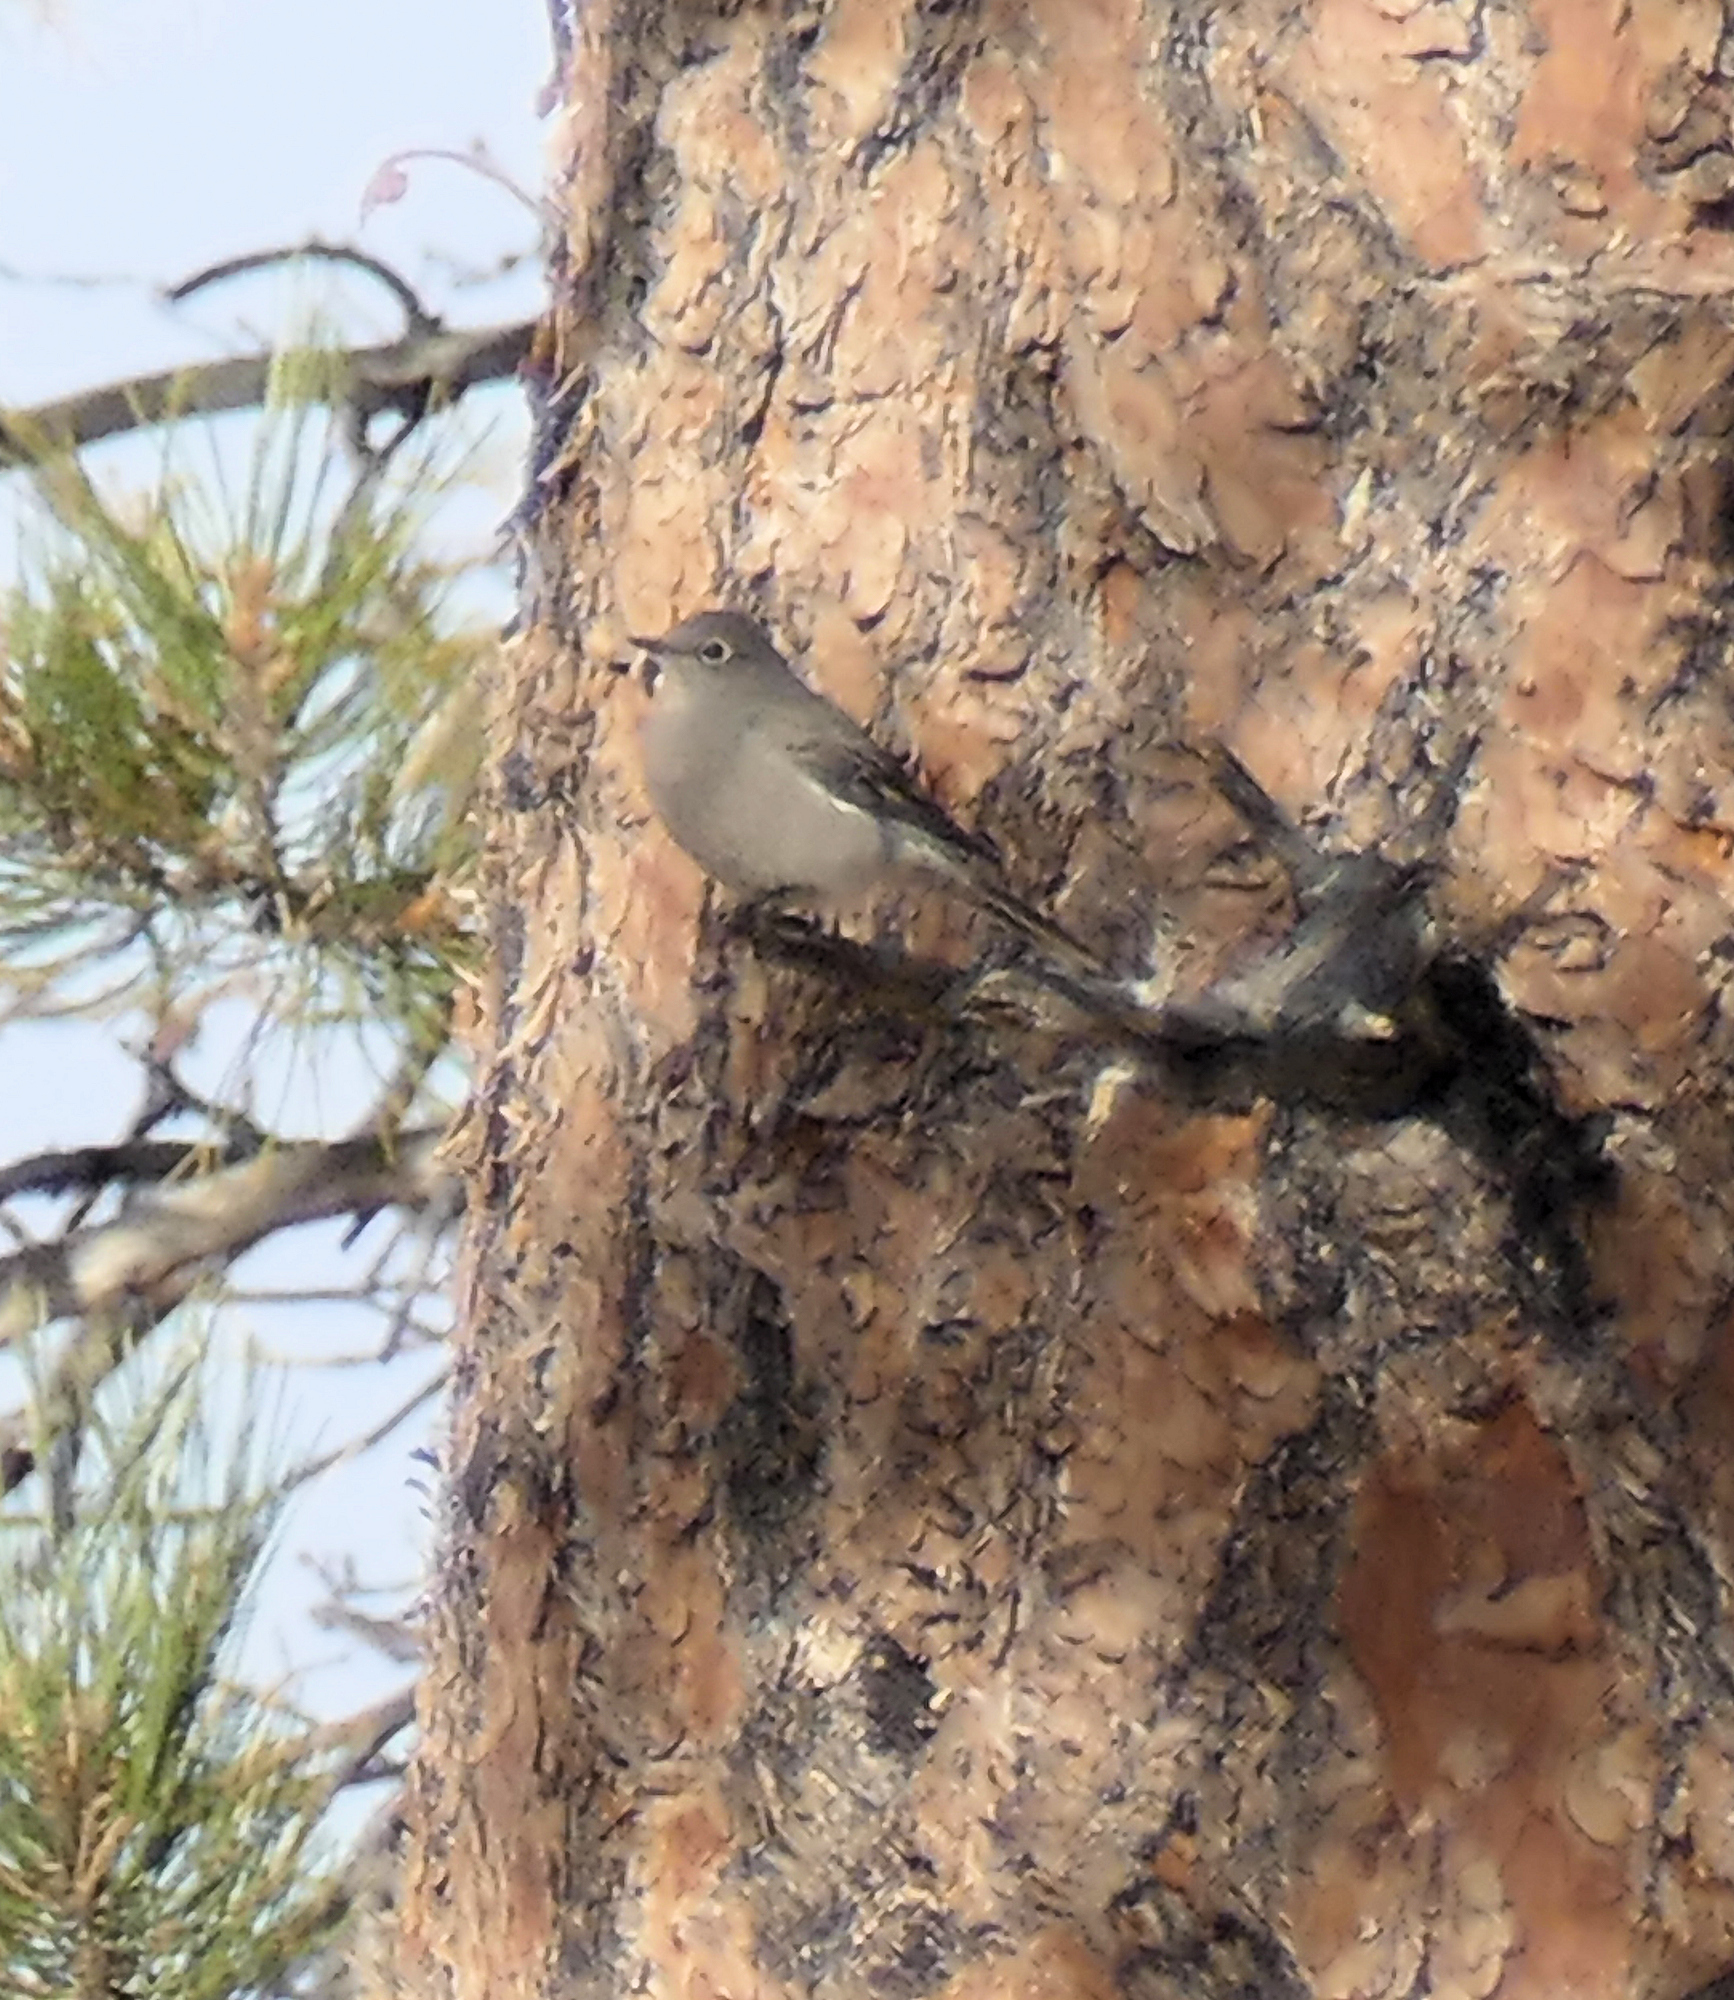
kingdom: Animalia
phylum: Chordata
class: Aves
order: Passeriformes
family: Turdidae
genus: Myadestes
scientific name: Myadestes townsendi
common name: Townsend's solitaire
